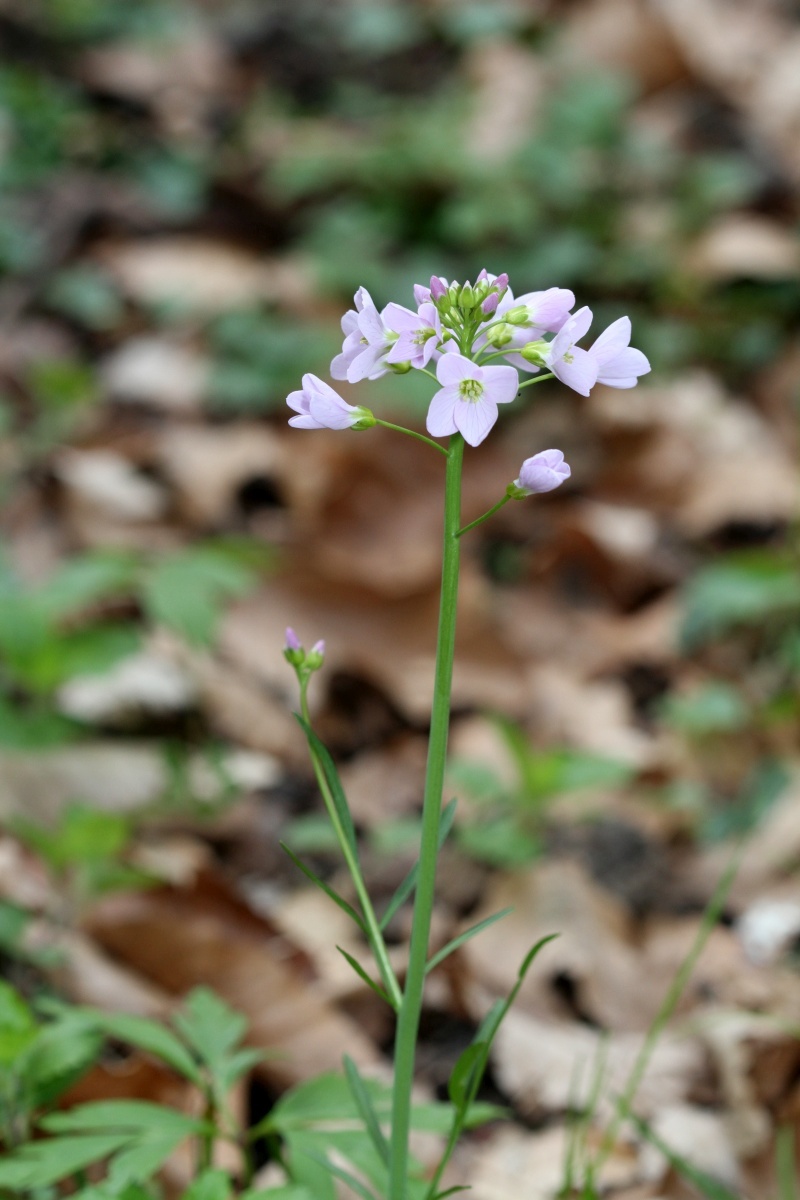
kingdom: Plantae
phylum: Tracheophyta
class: Magnoliopsida
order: Brassicales
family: Brassicaceae
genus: Cardamine
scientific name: Cardamine pratensis
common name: Cuckoo flower
